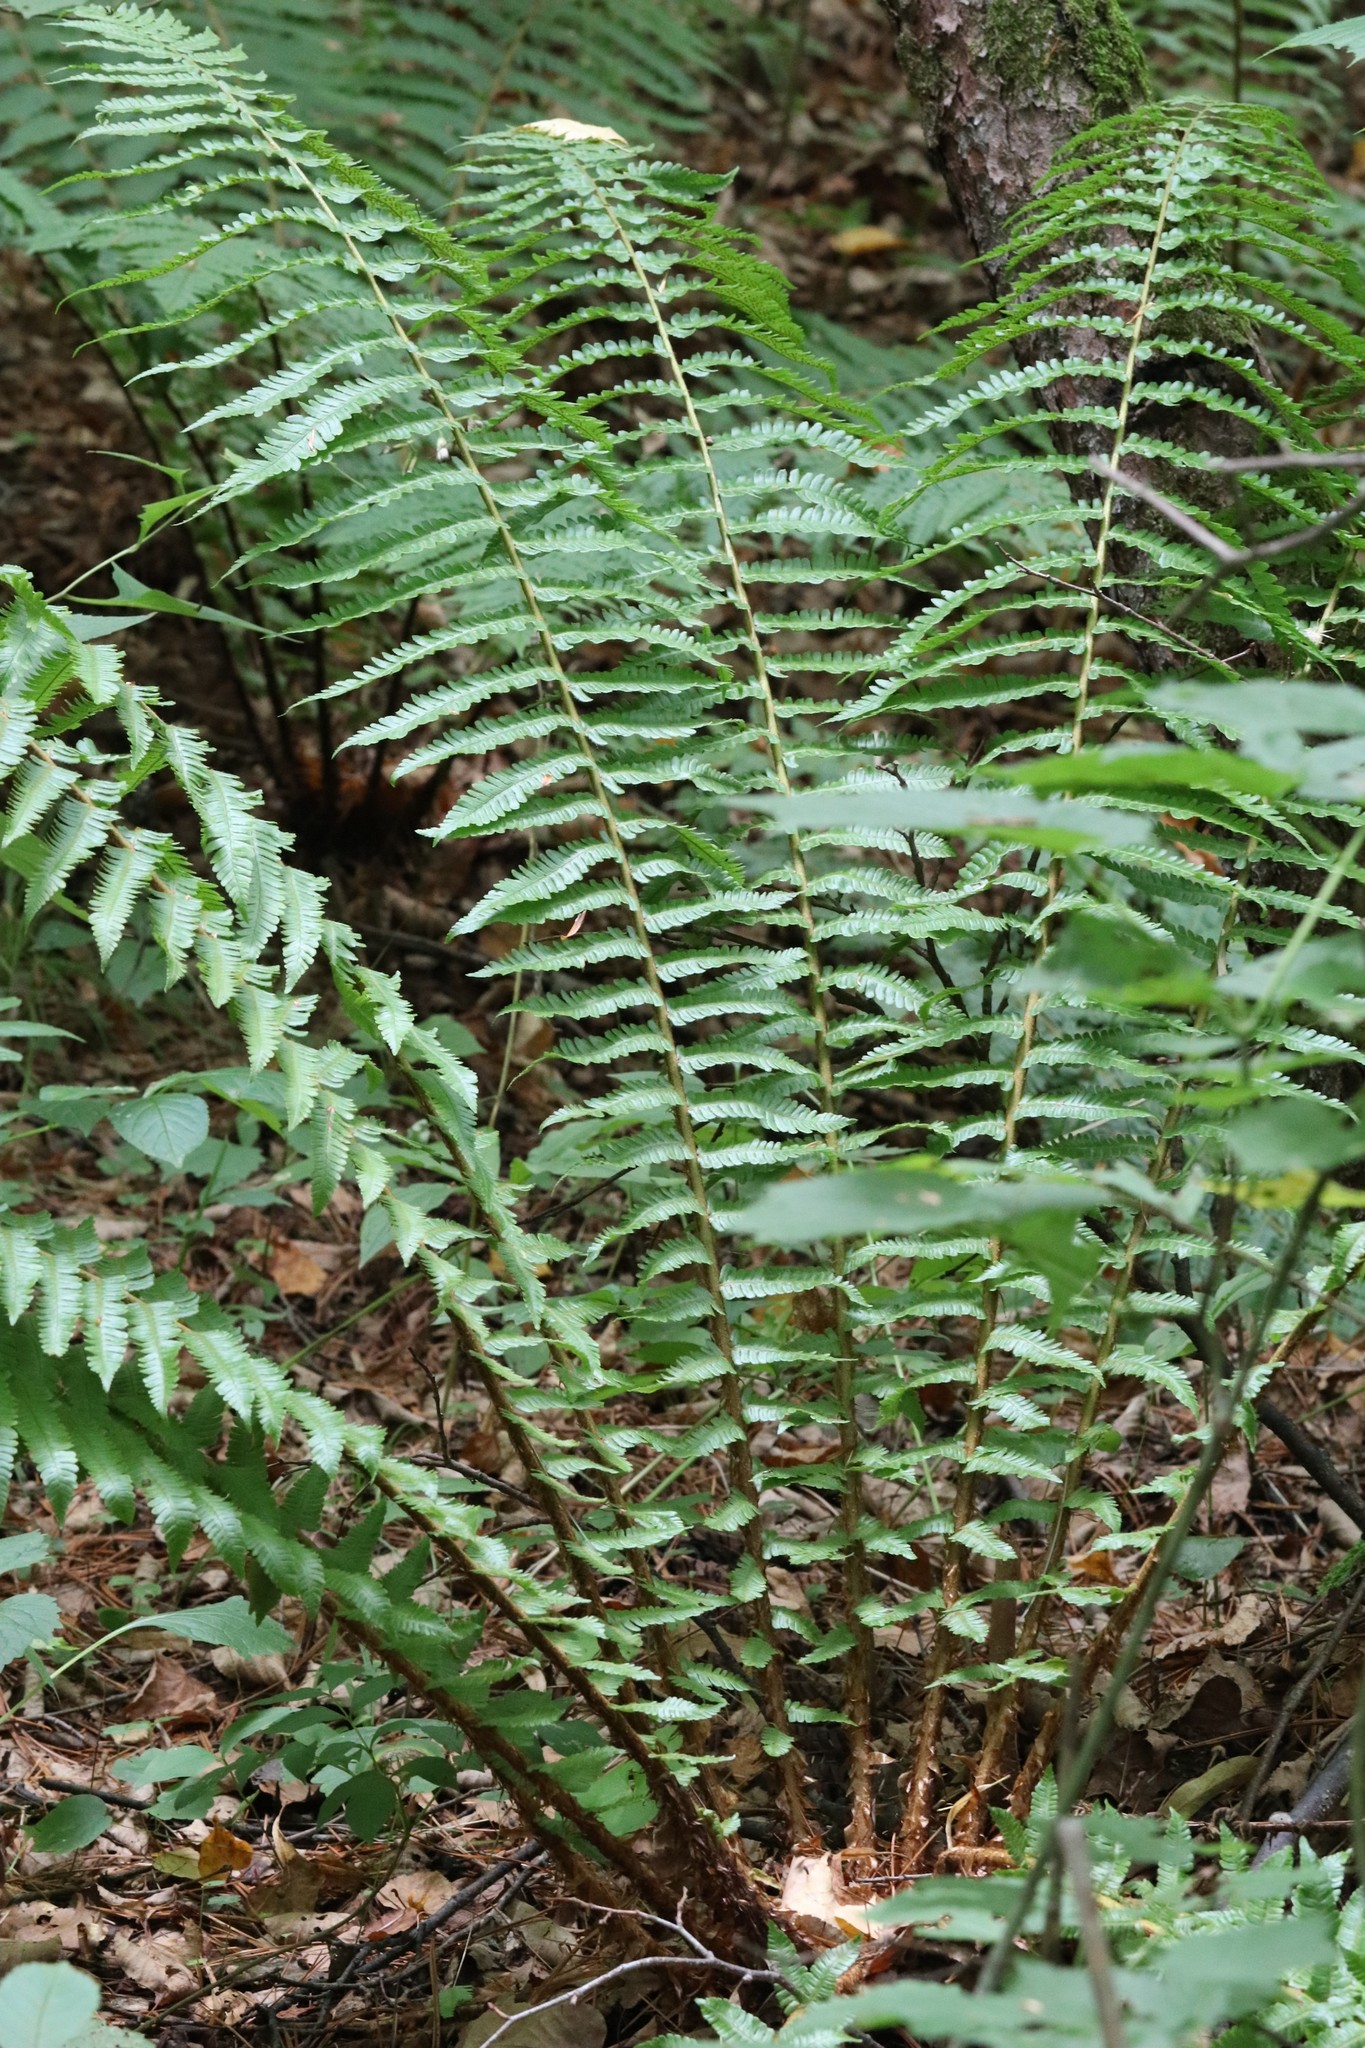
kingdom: Plantae
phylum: Tracheophyta
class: Polypodiopsida
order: Polypodiales
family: Dryopteridaceae
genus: Dryopteris
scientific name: Dryopteris crassirhizoma
